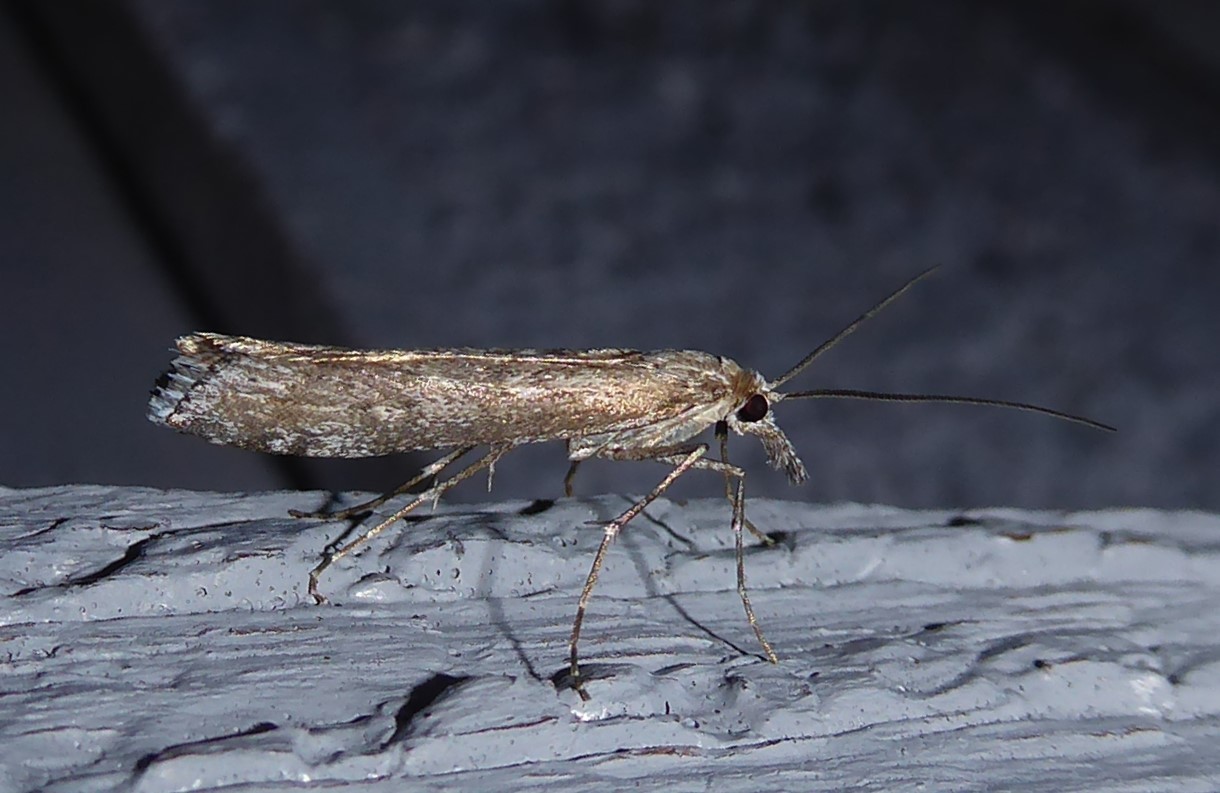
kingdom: Animalia
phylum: Arthropoda
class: Insecta
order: Lepidoptera
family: Crambidae
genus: Orocrambus
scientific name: Orocrambus cyclopicus
